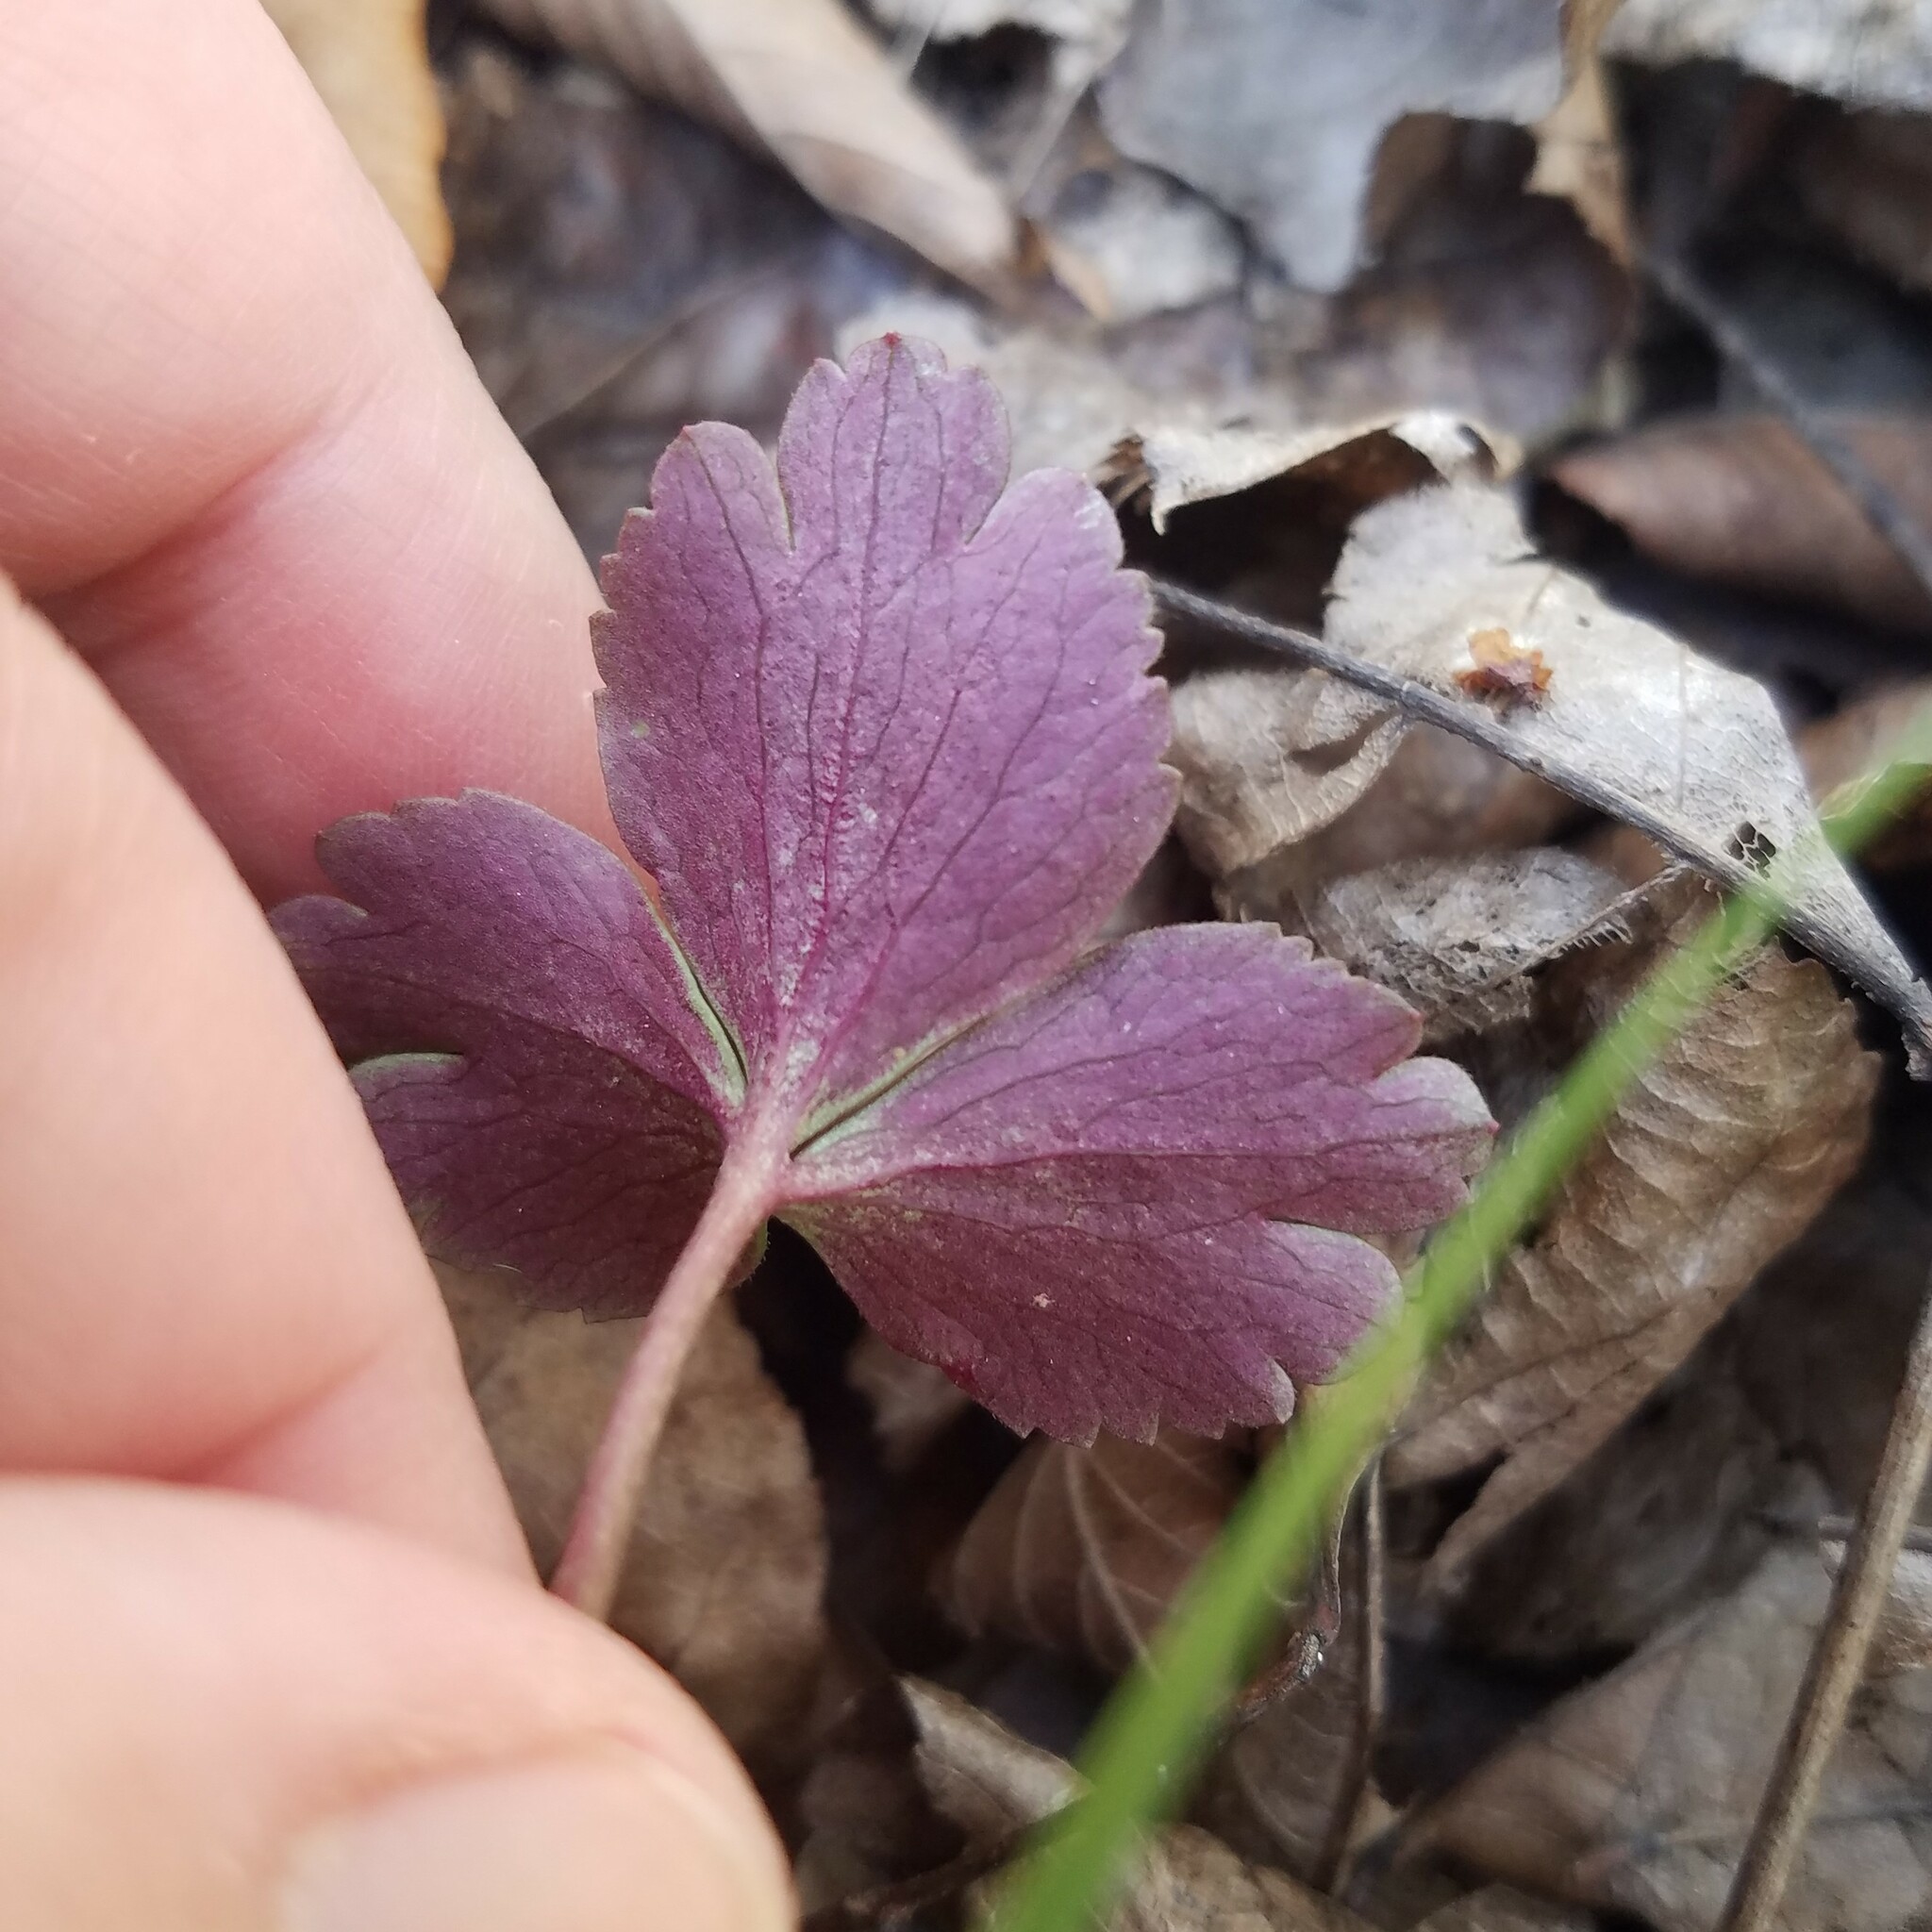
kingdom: Plantae
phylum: Tracheophyta
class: Magnoliopsida
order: Ranunculales
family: Ranunculaceae
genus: Anemone
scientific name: Anemone berlandieri
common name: Ten-petal anemone
